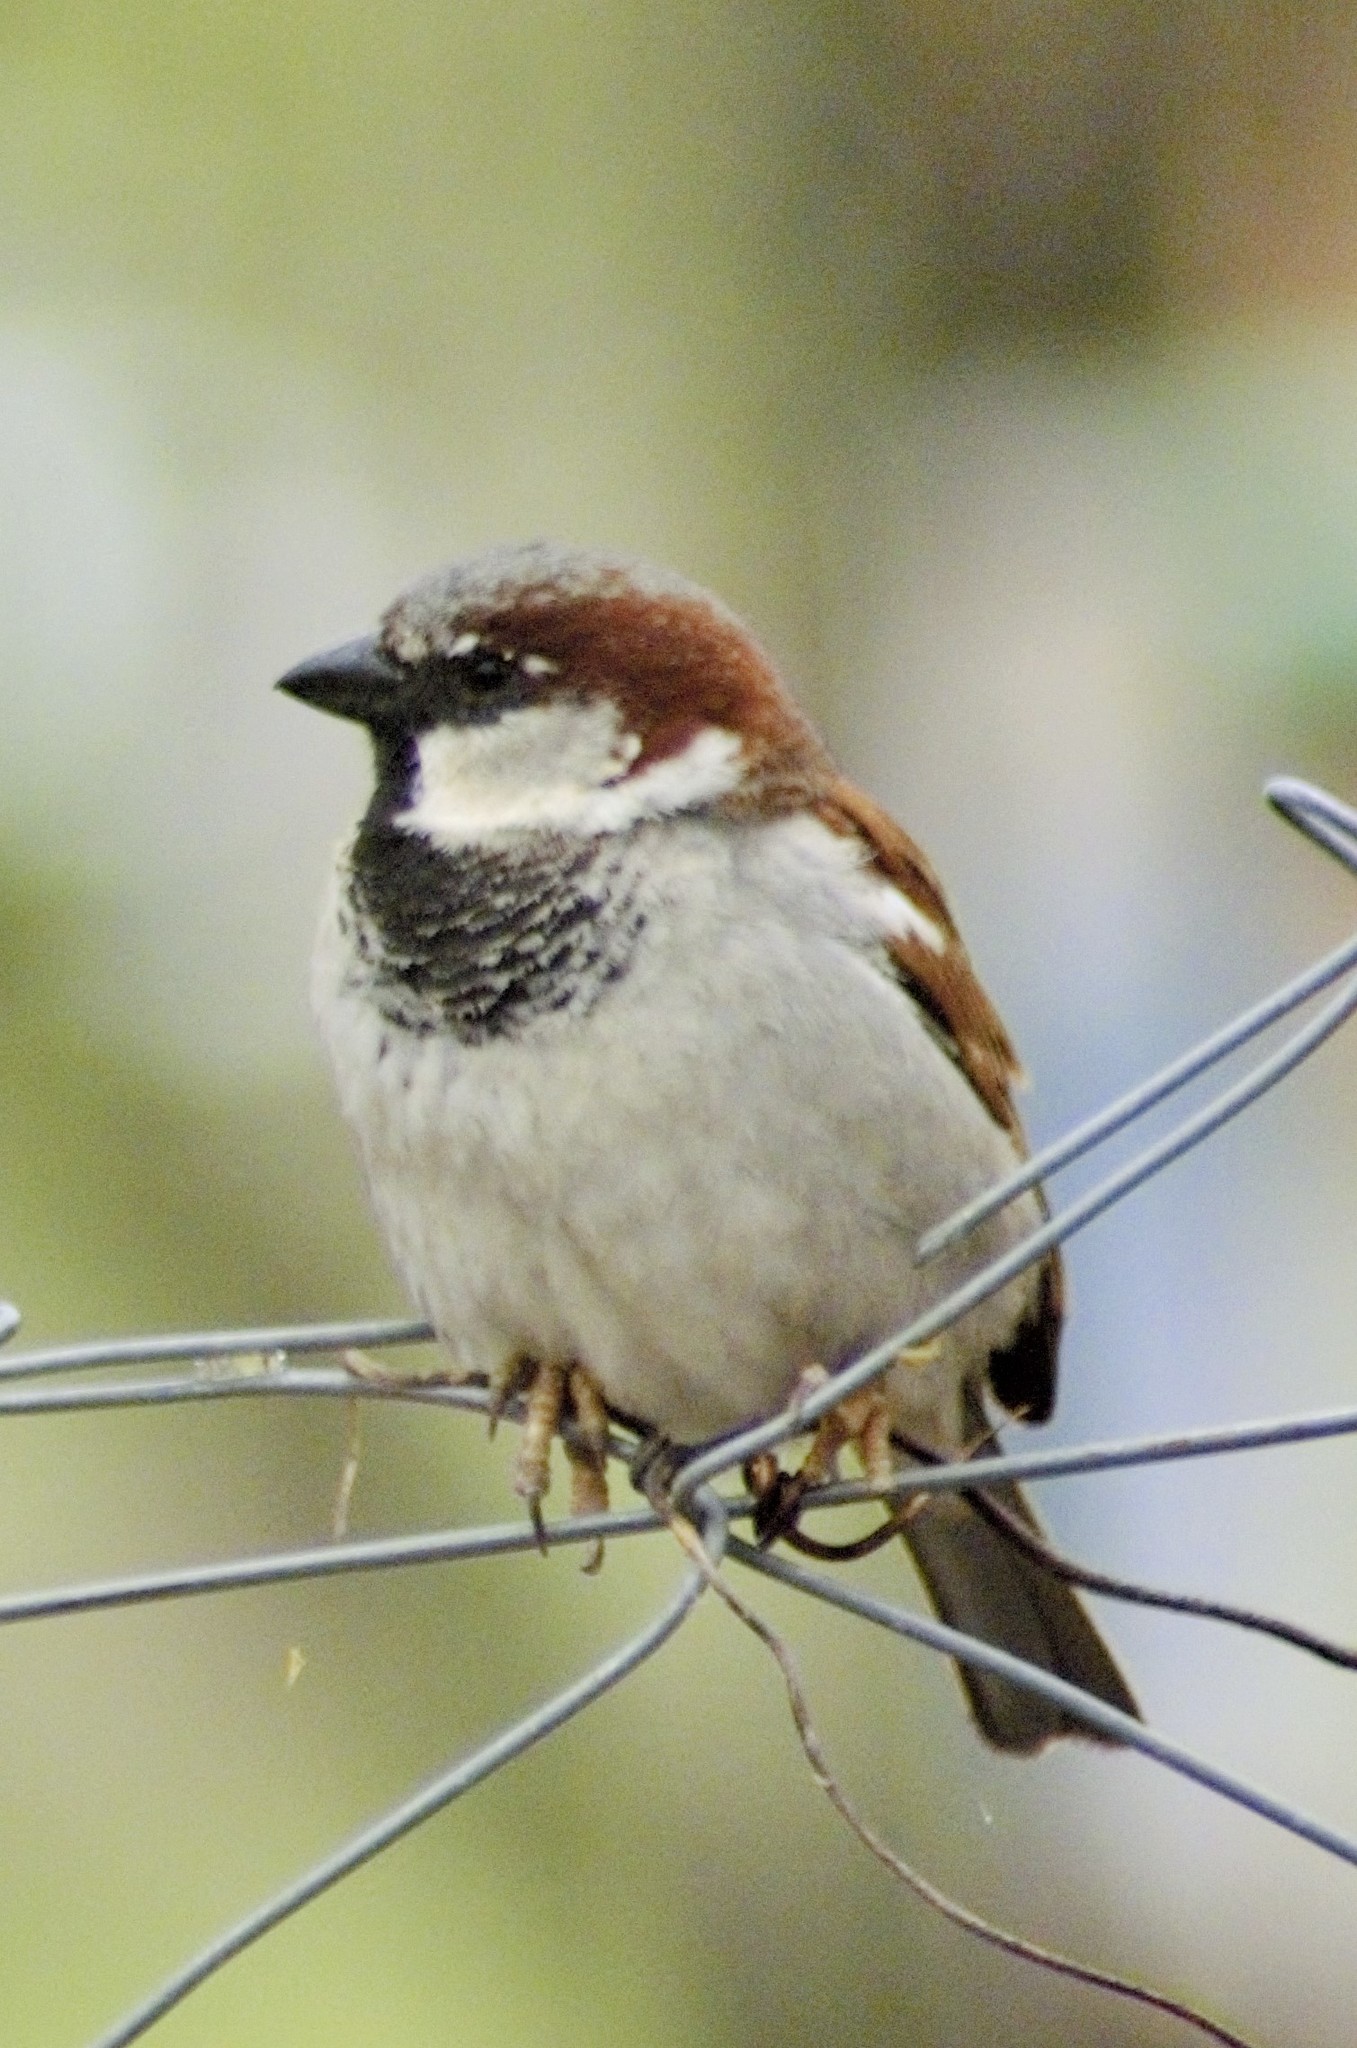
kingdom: Animalia
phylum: Chordata
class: Aves
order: Passeriformes
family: Passeridae
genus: Passer
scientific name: Passer domesticus
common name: House sparrow
